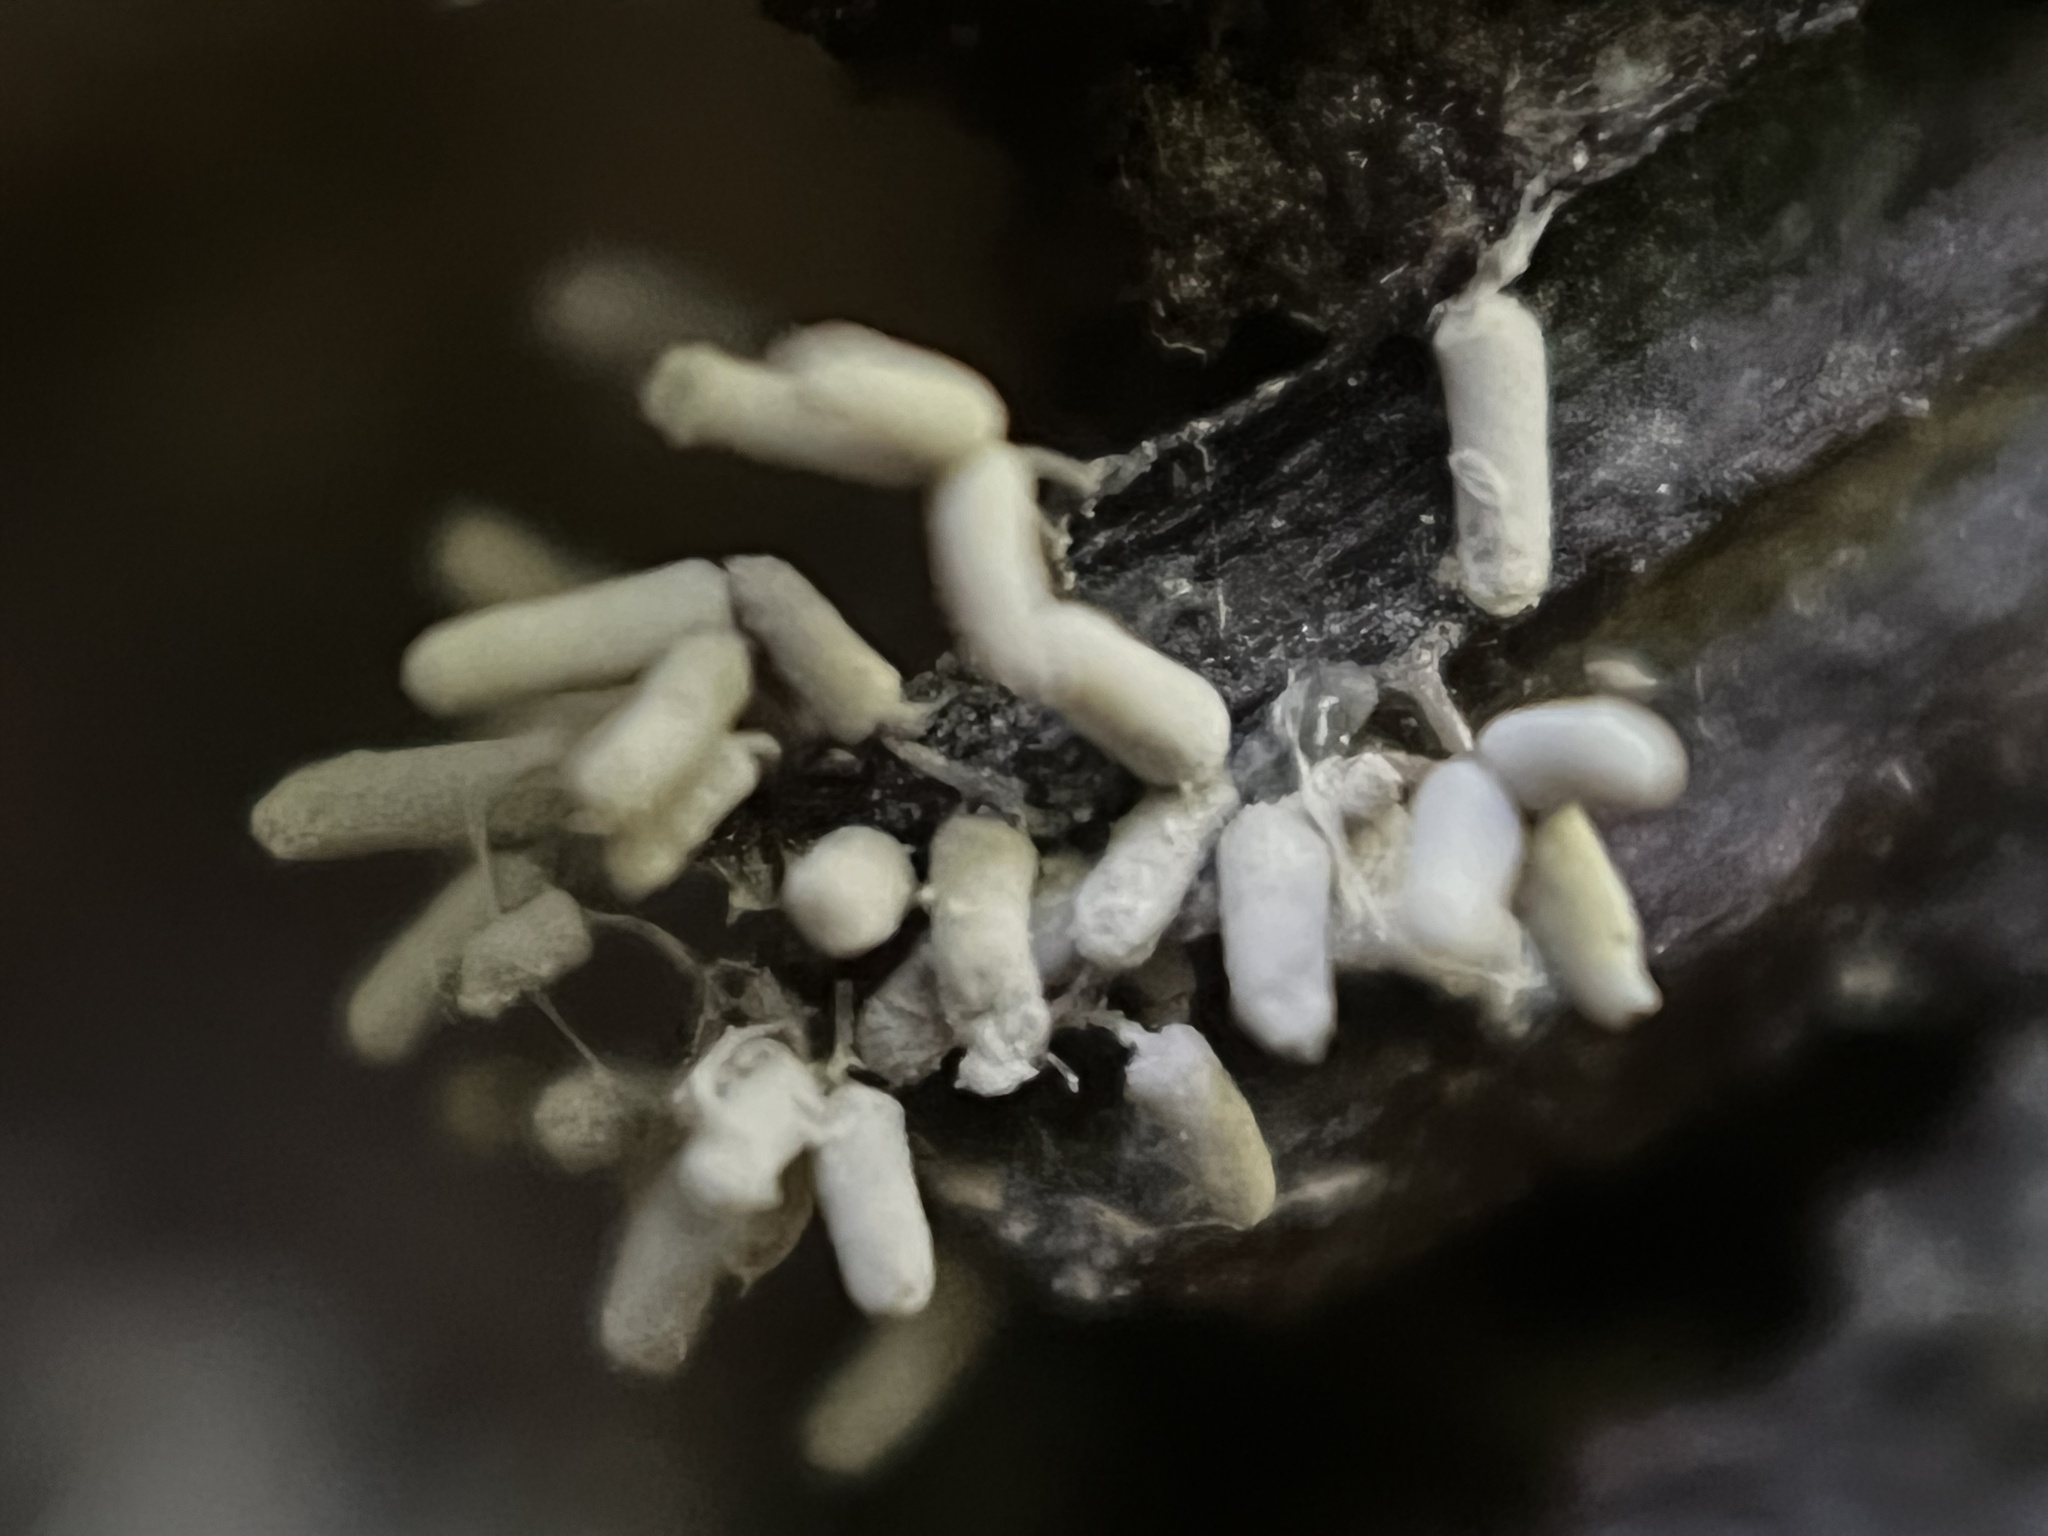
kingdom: Protozoa
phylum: Mycetozoa
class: Myxomycetes
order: Trichiales
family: Arcyriaceae
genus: Arcyria
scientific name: Arcyria cinerea
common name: White carnival candy slime mold
